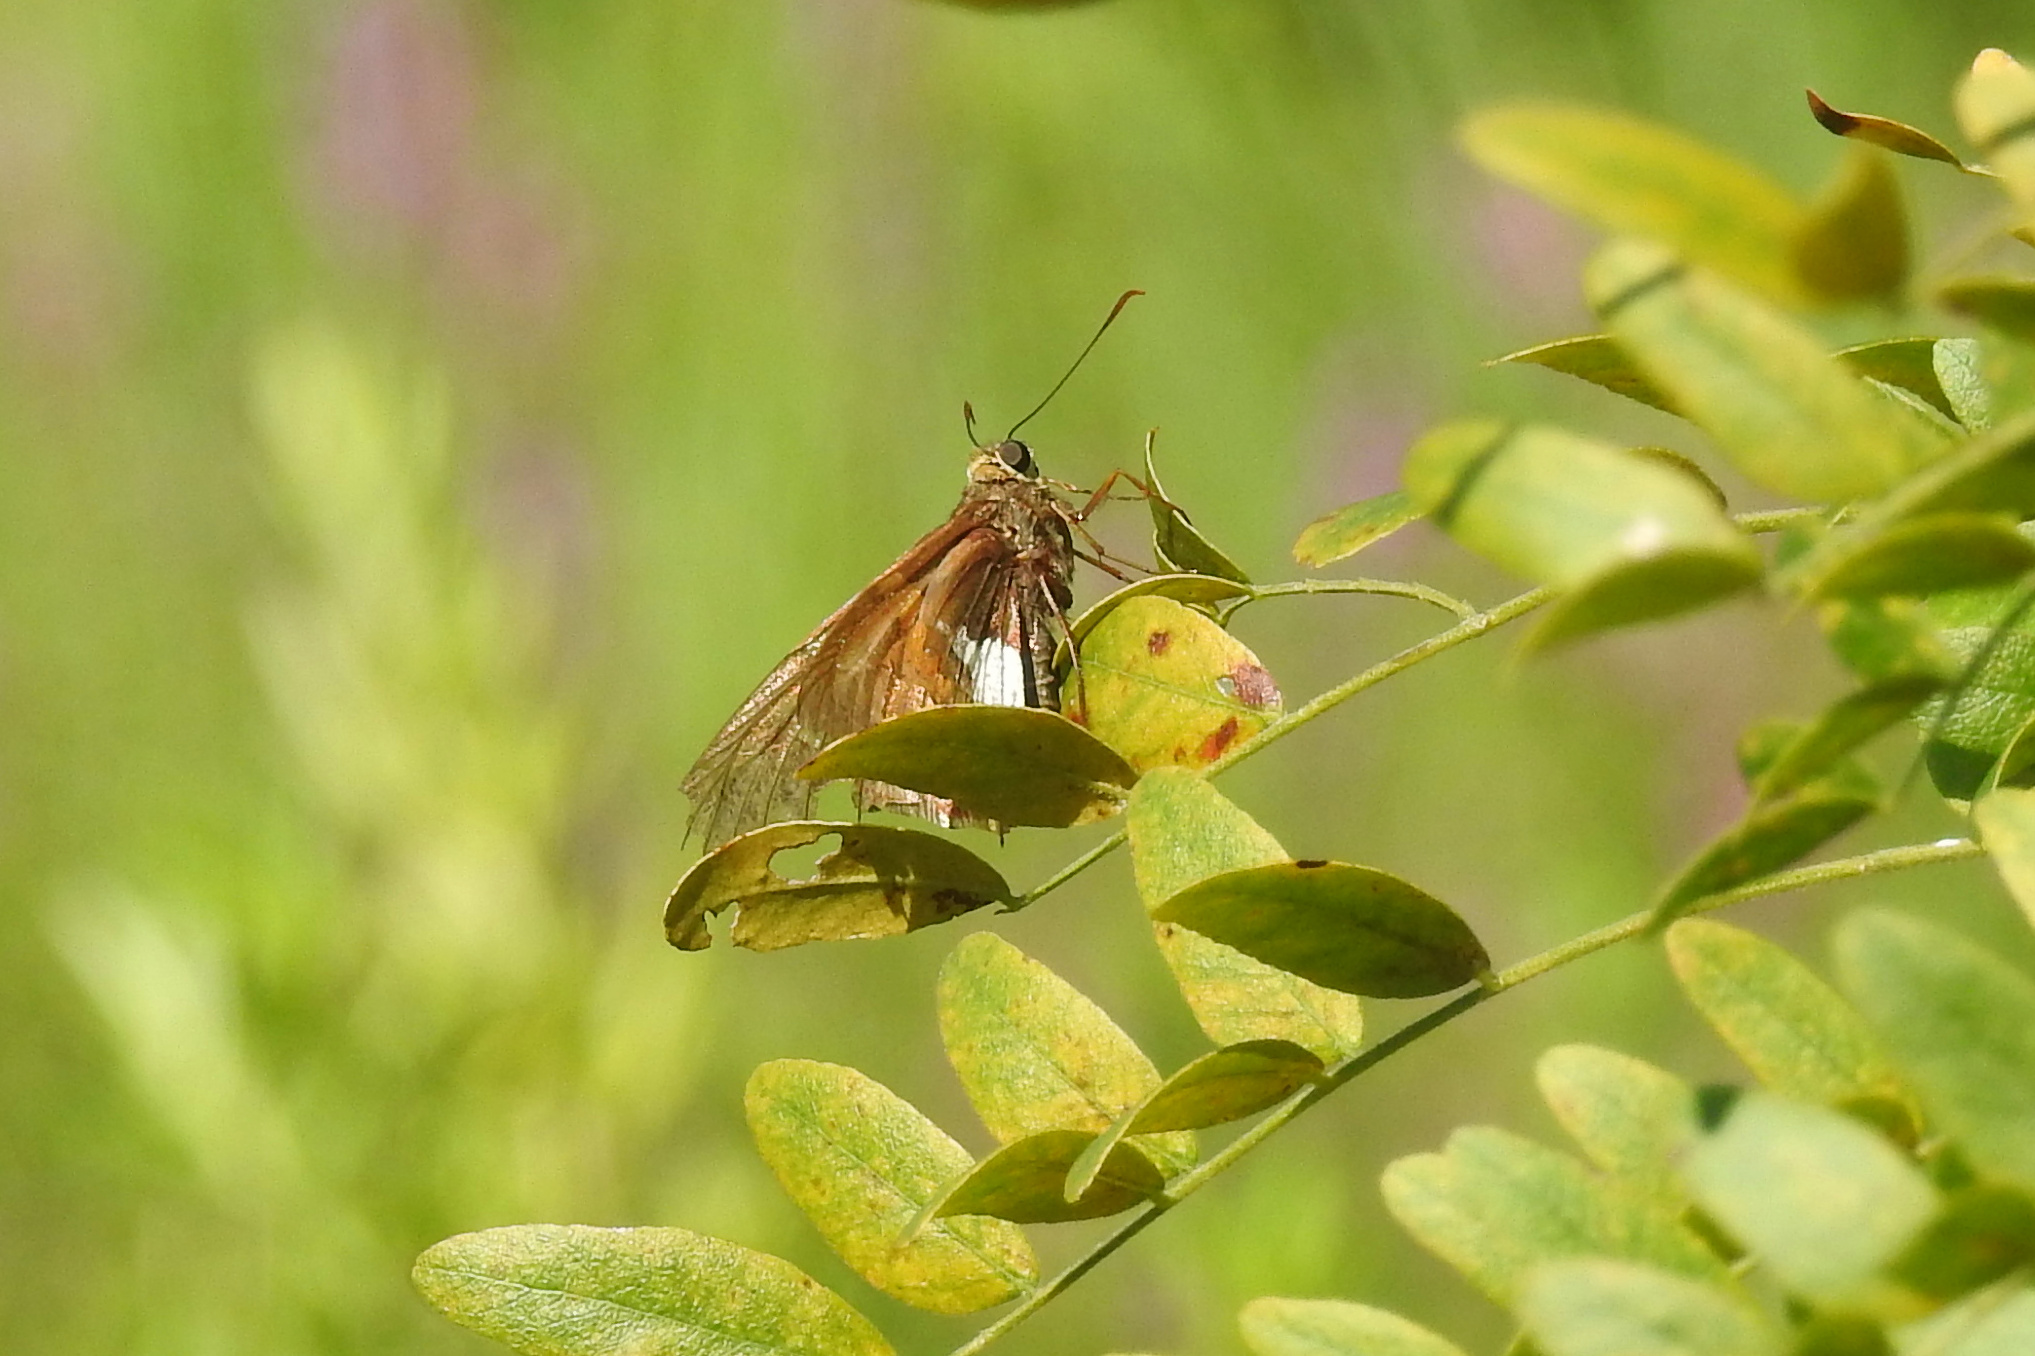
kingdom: Animalia
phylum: Arthropoda
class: Insecta
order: Lepidoptera
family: Hesperiidae
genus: Epargyreus
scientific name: Epargyreus clarus
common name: Silver-spotted skipper
